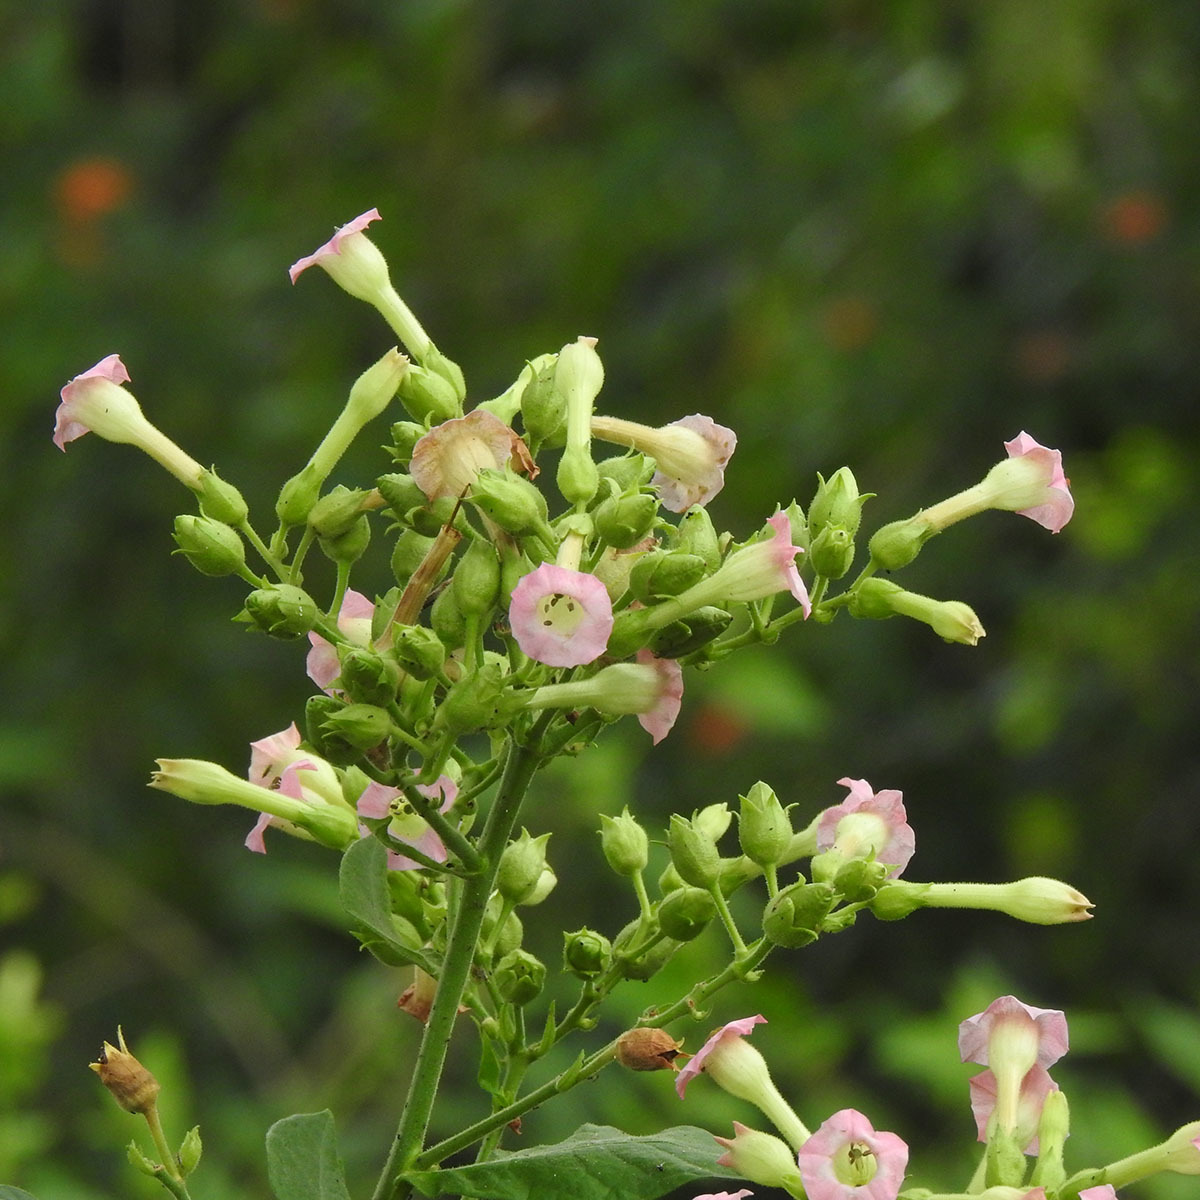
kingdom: Plantae
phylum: Tracheophyta
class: Magnoliopsida
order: Solanales
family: Solanaceae
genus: Nicotiana
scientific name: Nicotiana tabacum
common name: Tobacco
